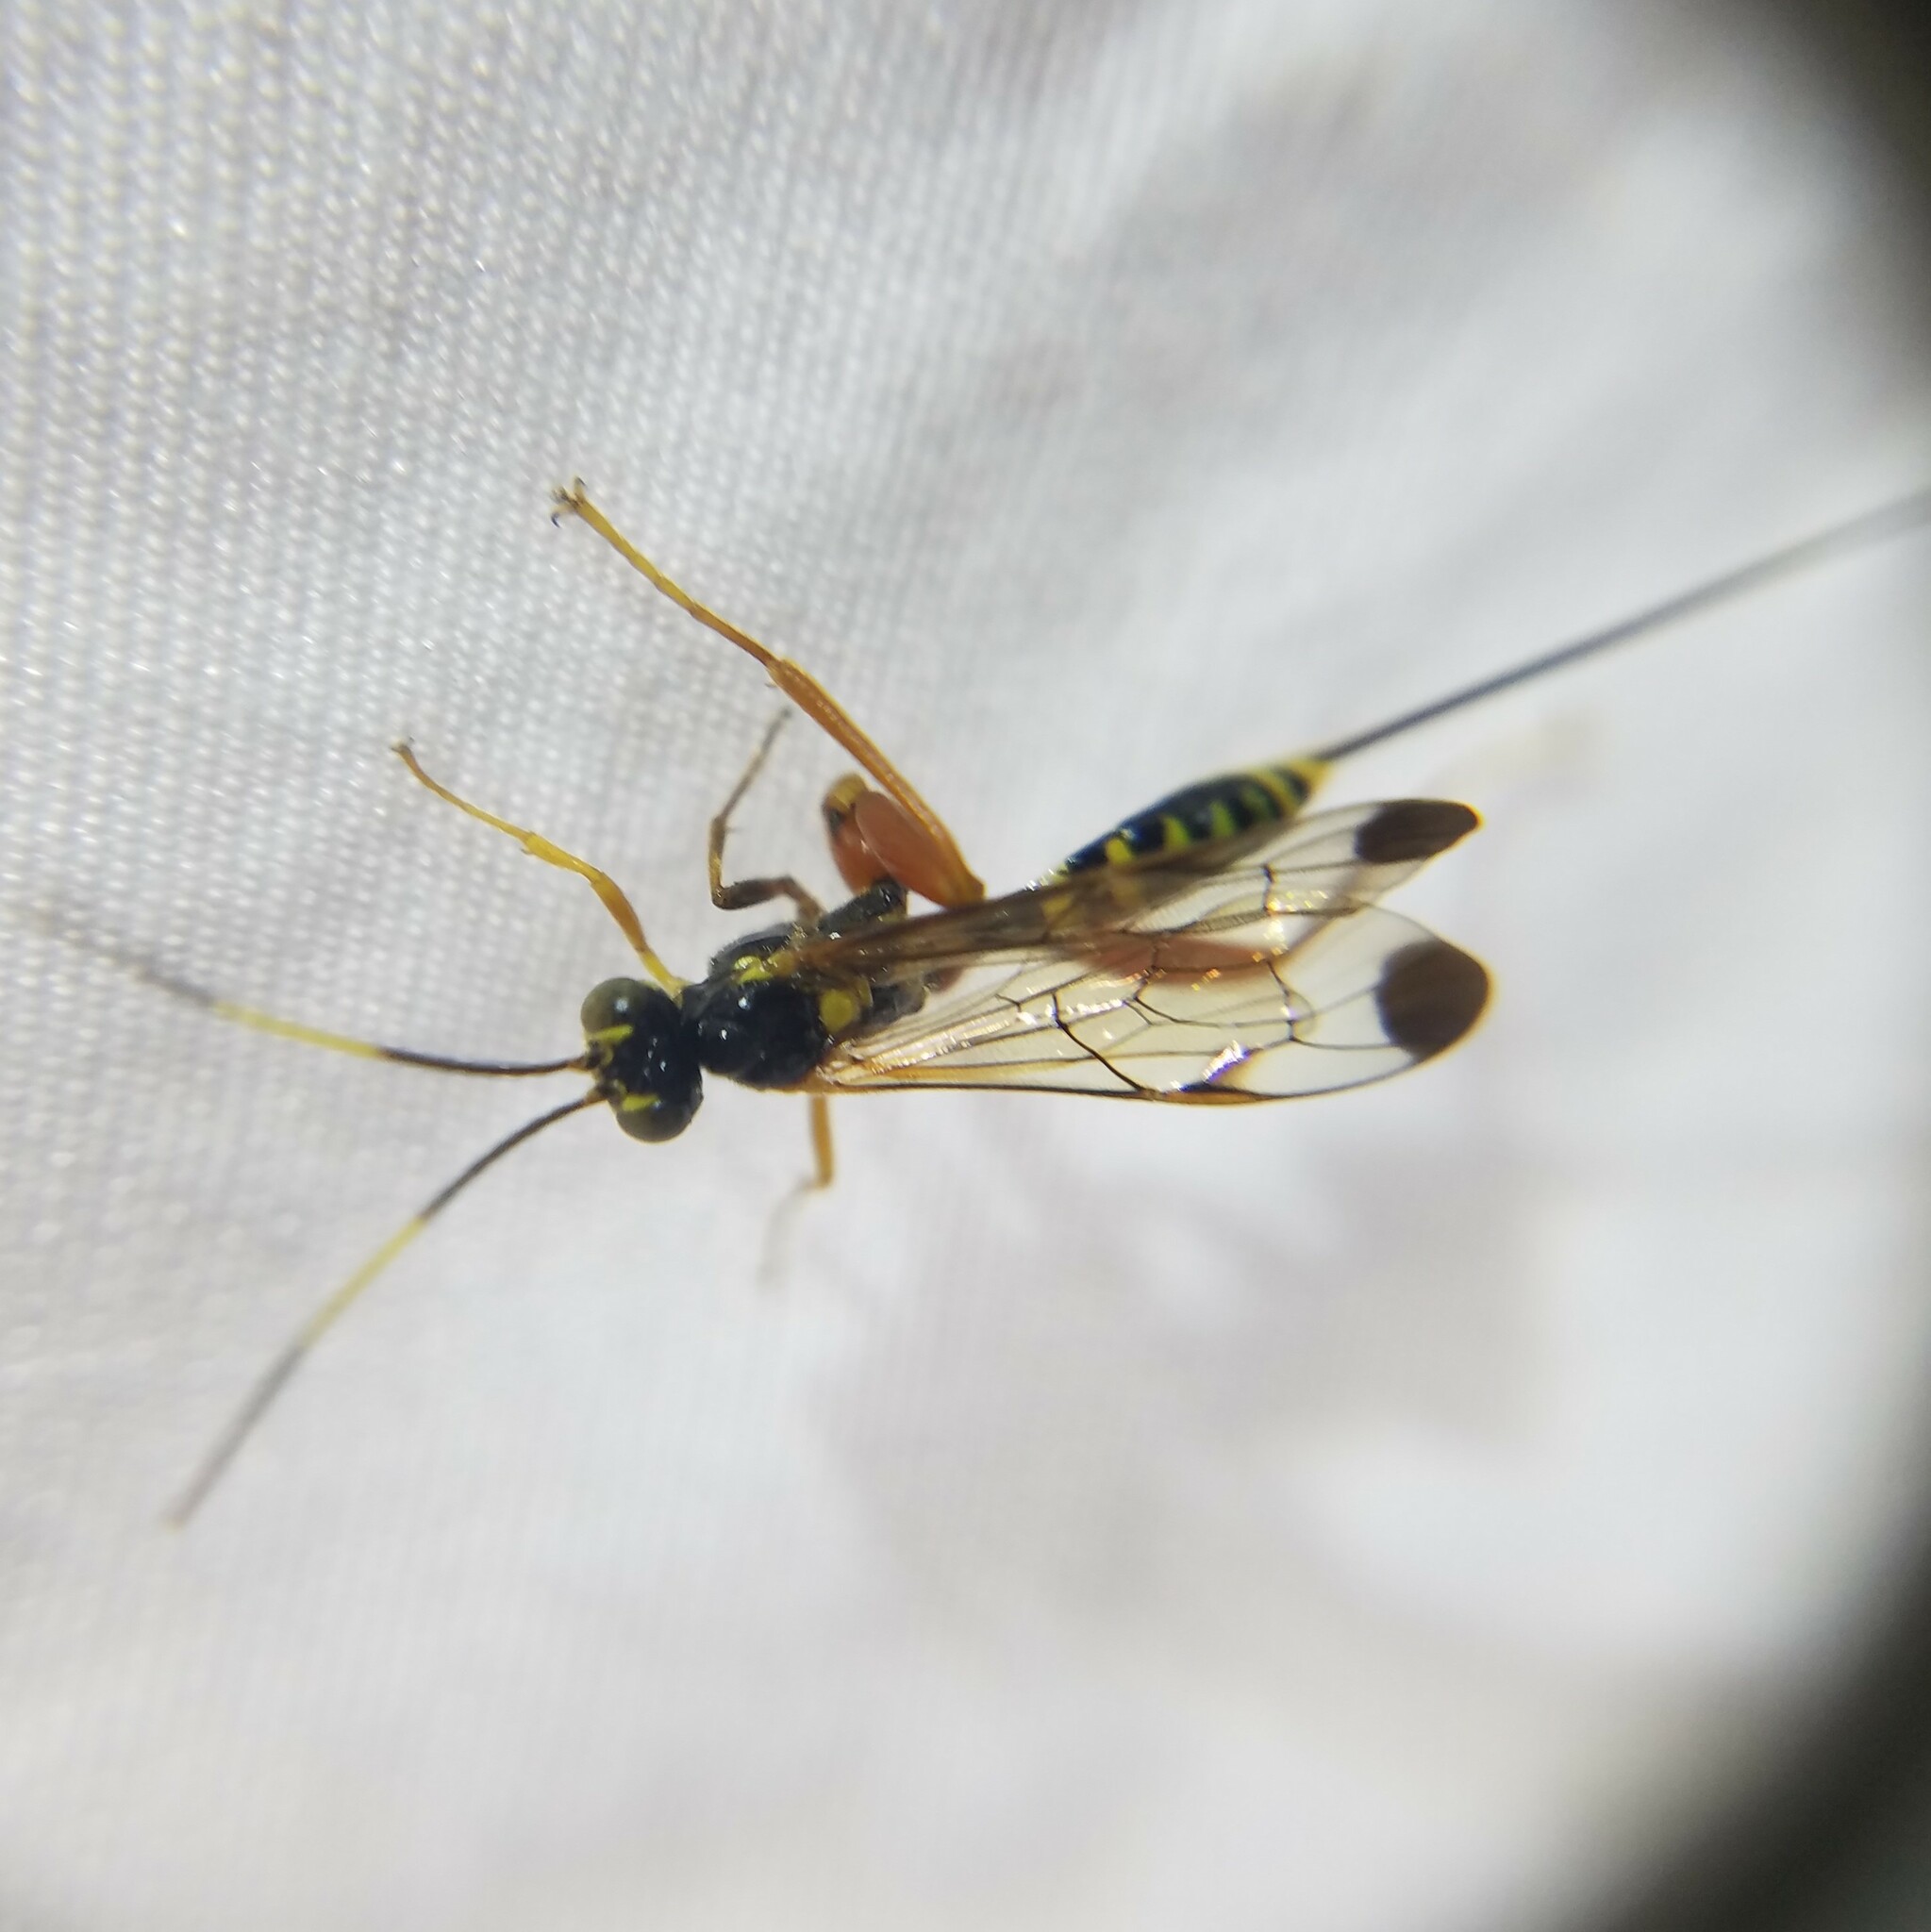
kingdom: Animalia
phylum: Arthropoda
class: Insecta
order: Hymenoptera
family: Ichneumonidae
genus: Spilopteron
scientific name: Spilopteron occiputale
